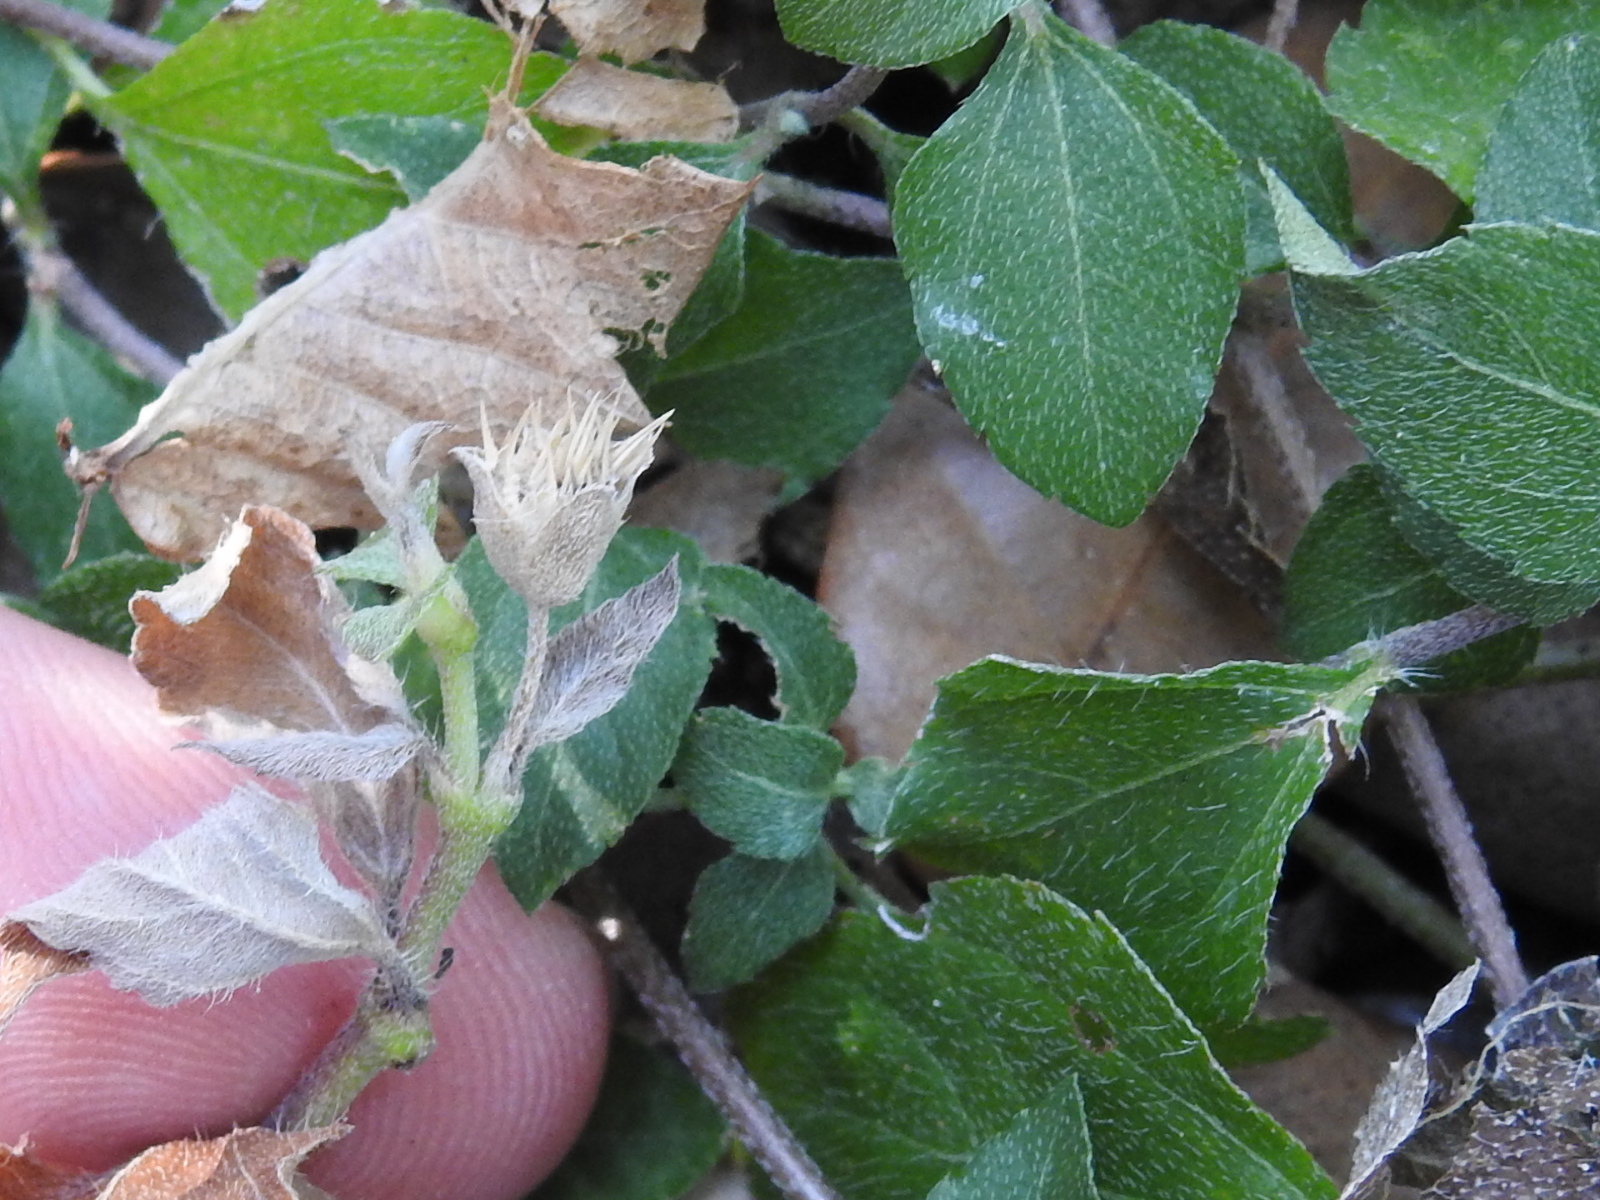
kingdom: Plantae
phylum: Tracheophyta
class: Magnoliopsida
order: Asterales
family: Asteraceae
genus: Calyptocarpus
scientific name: Calyptocarpus vialis
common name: Straggler daisy
